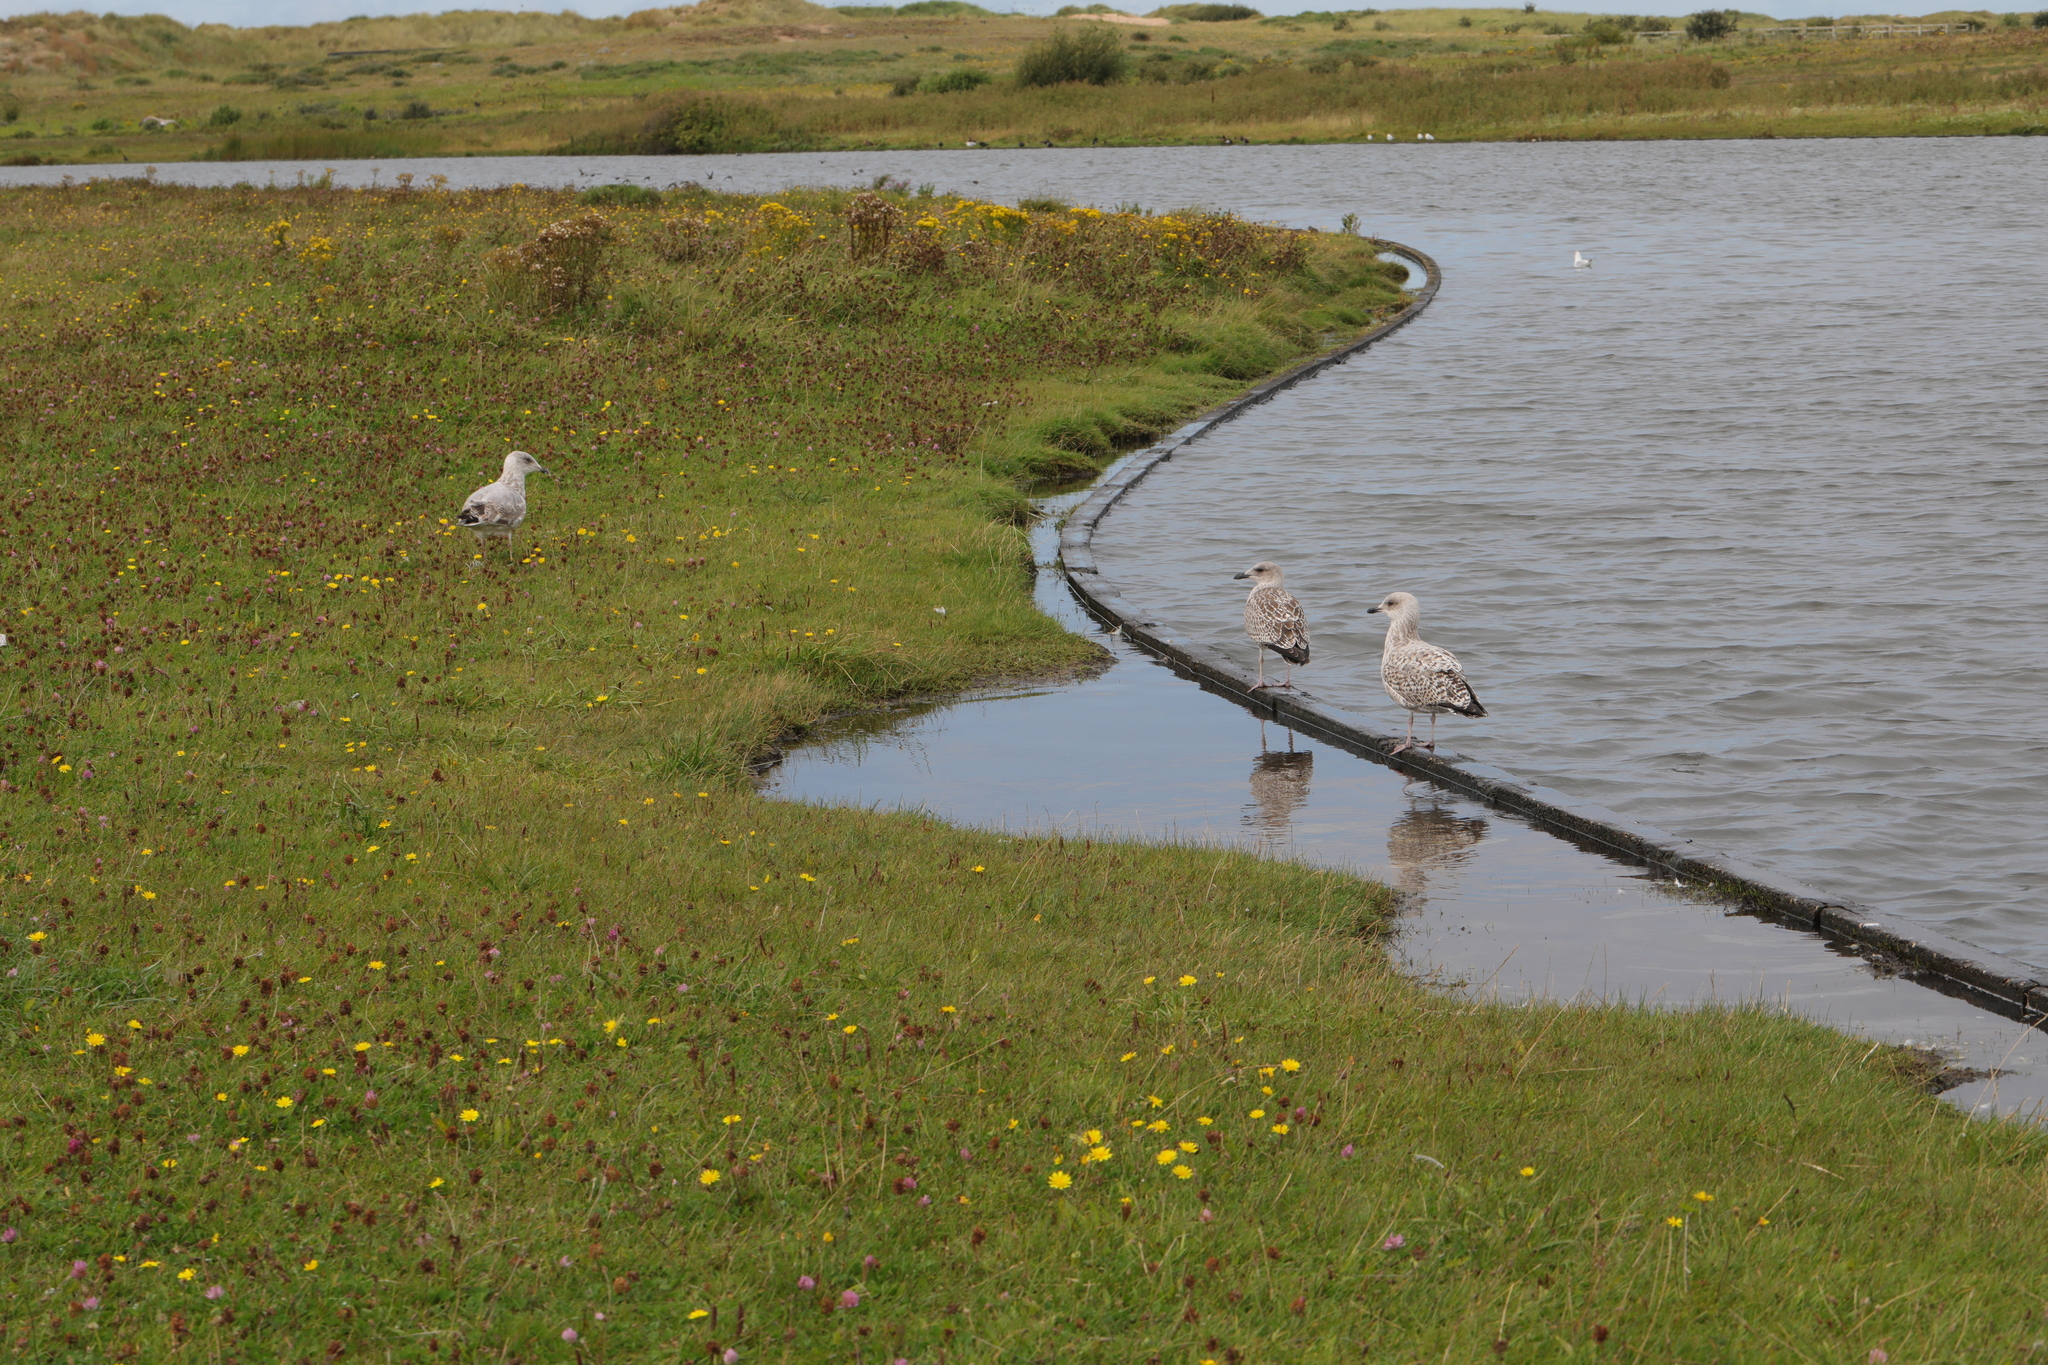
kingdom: Animalia
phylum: Chordata
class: Aves
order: Charadriiformes
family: Laridae
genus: Larus
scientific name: Larus argentatus
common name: Herring gull
